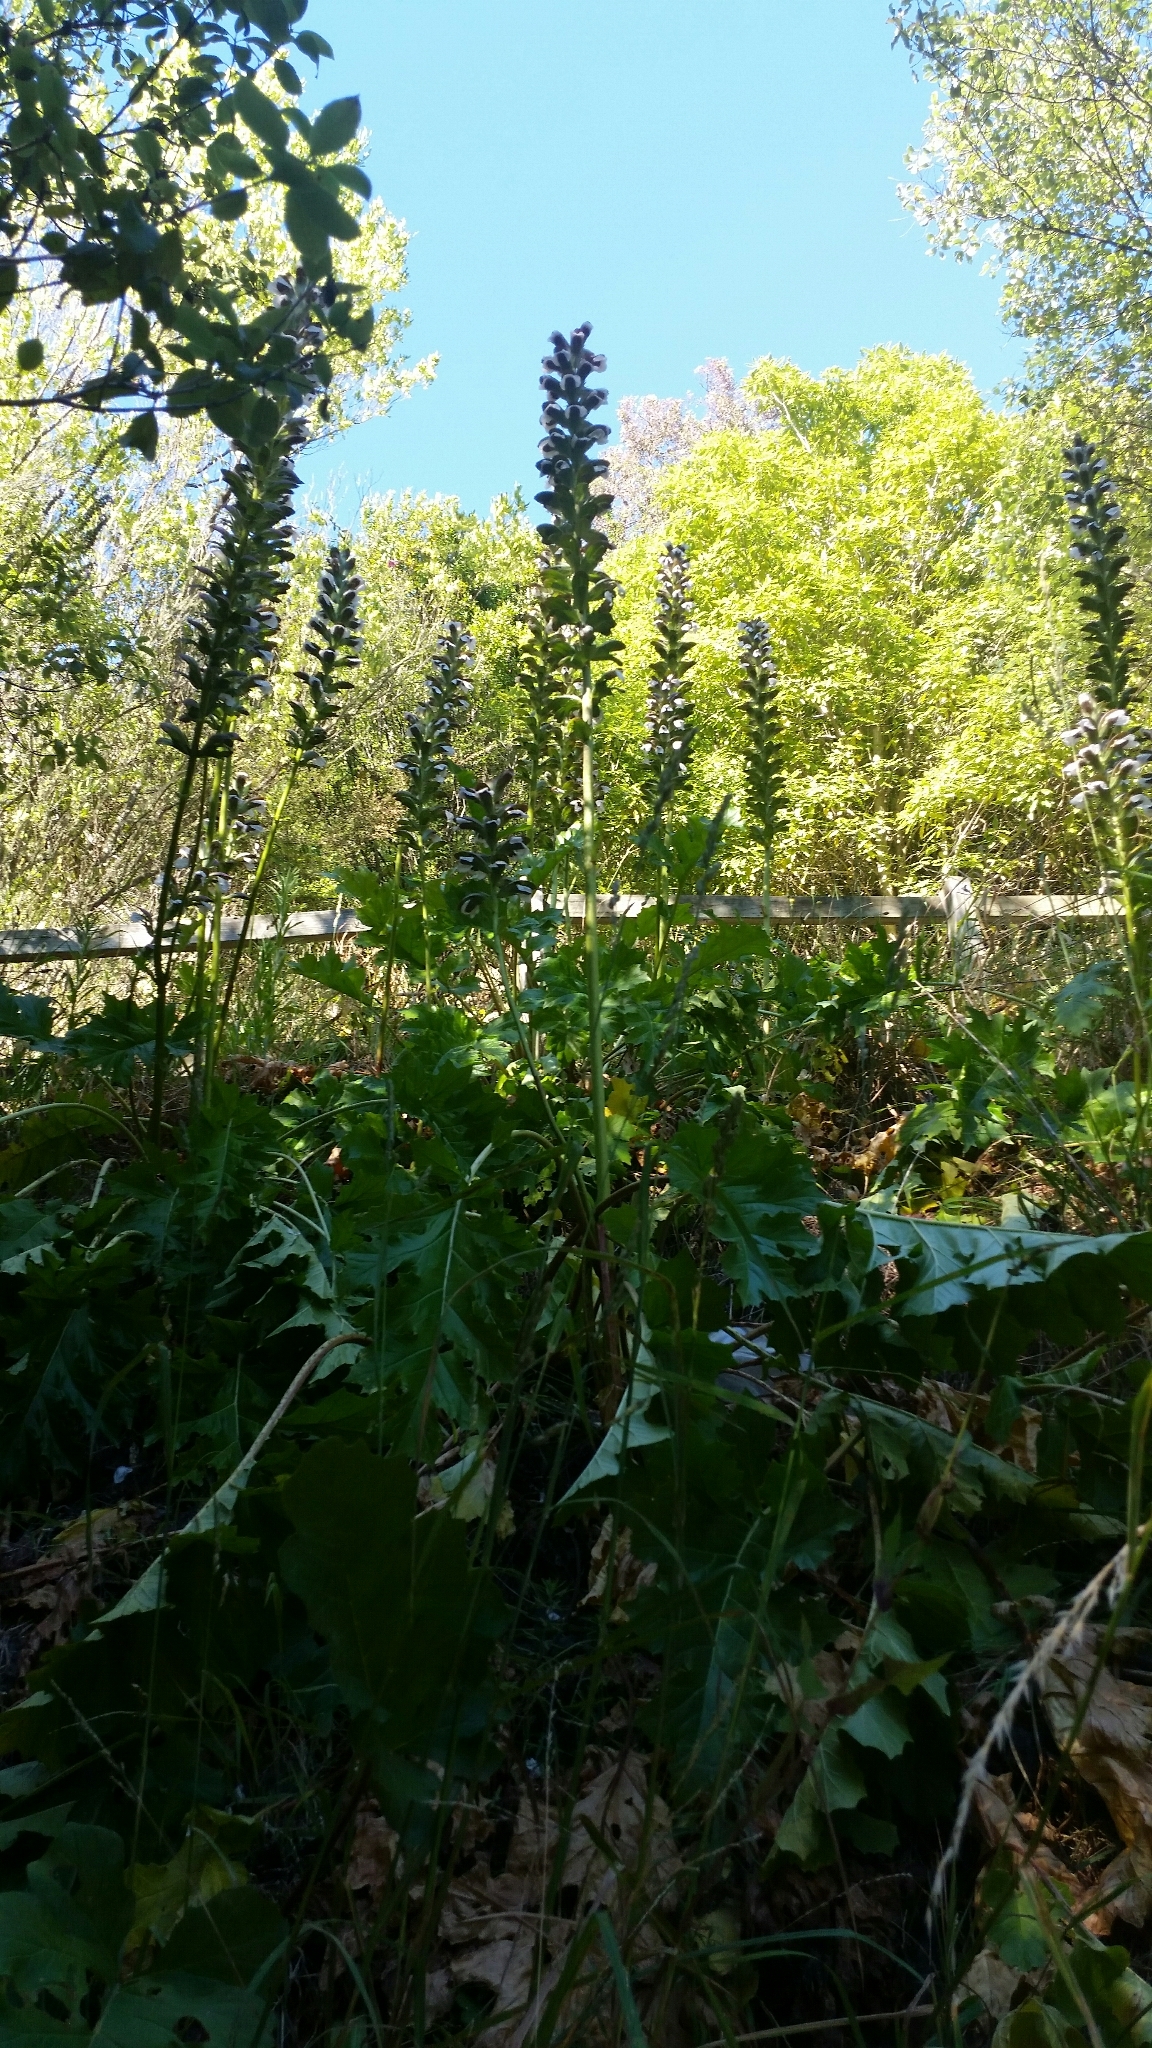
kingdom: Plantae
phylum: Tracheophyta
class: Magnoliopsida
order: Lamiales
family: Acanthaceae
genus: Acanthus
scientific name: Acanthus mollis
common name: Bear's-breech
